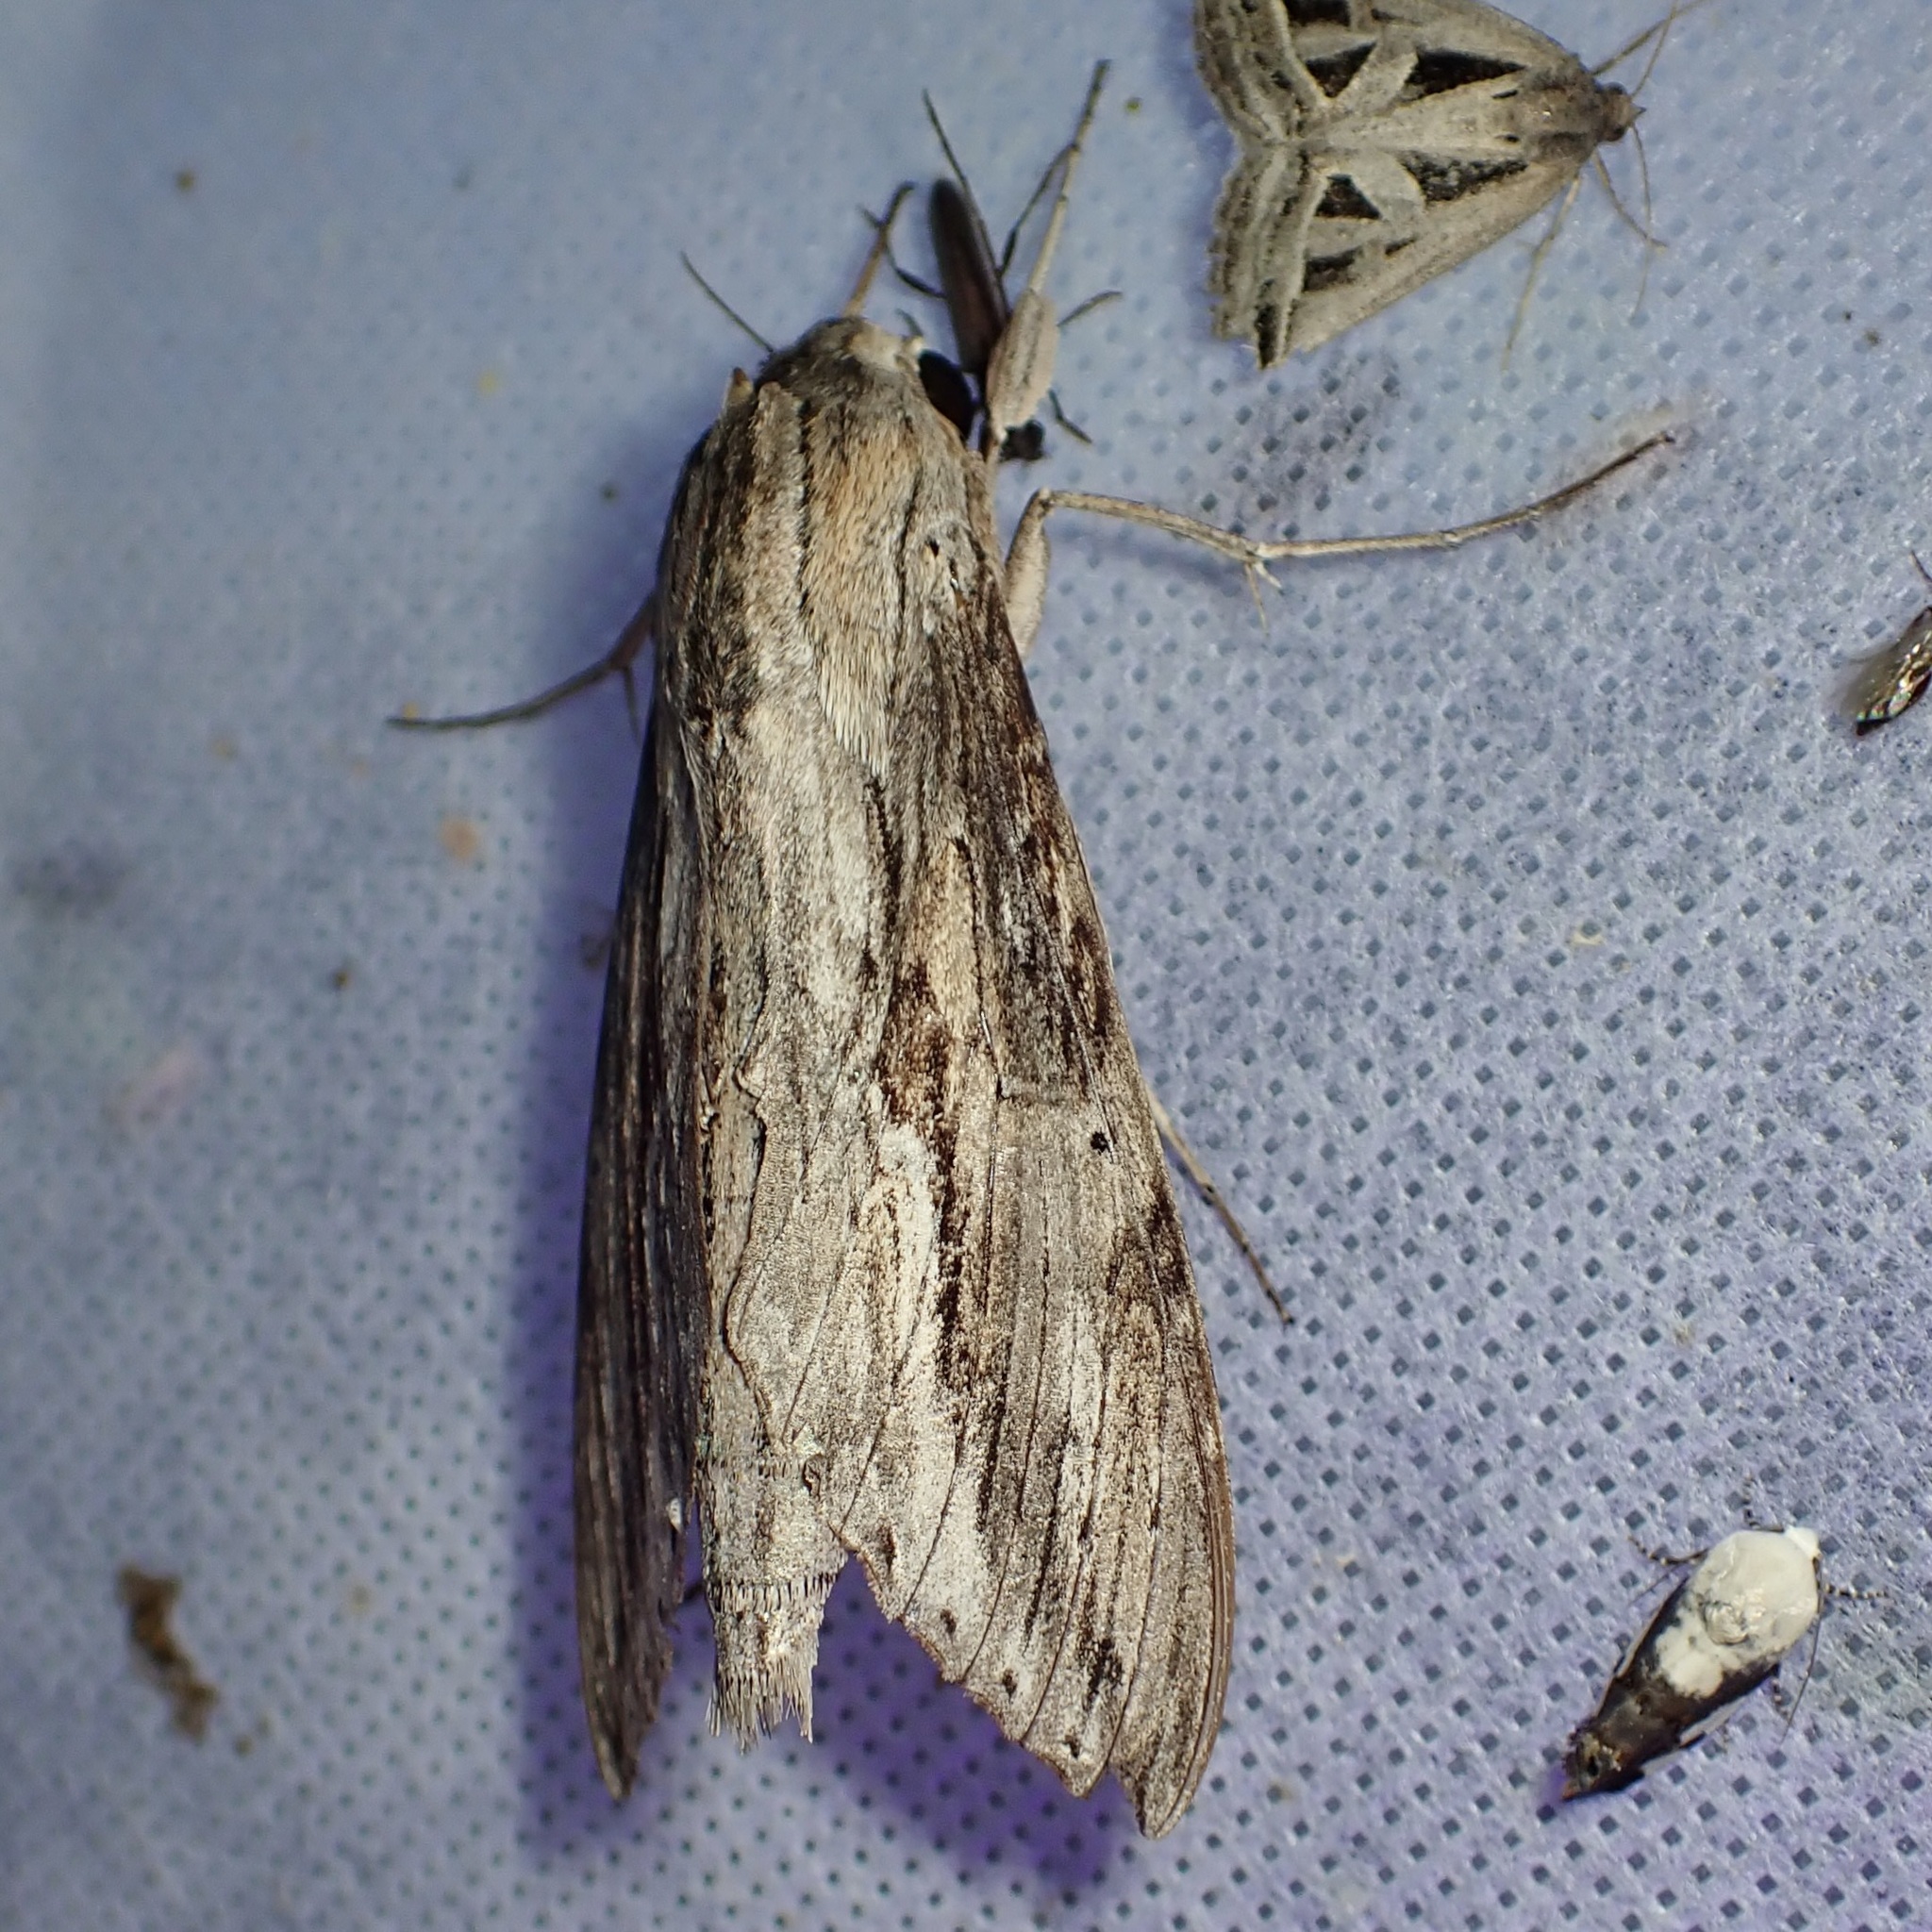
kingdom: Animalia
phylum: Arthropoda
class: Insecta
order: Lepidoptera
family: Sphingidae
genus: Erinnyis
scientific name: Erinnyis ello
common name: Ello sphinx
